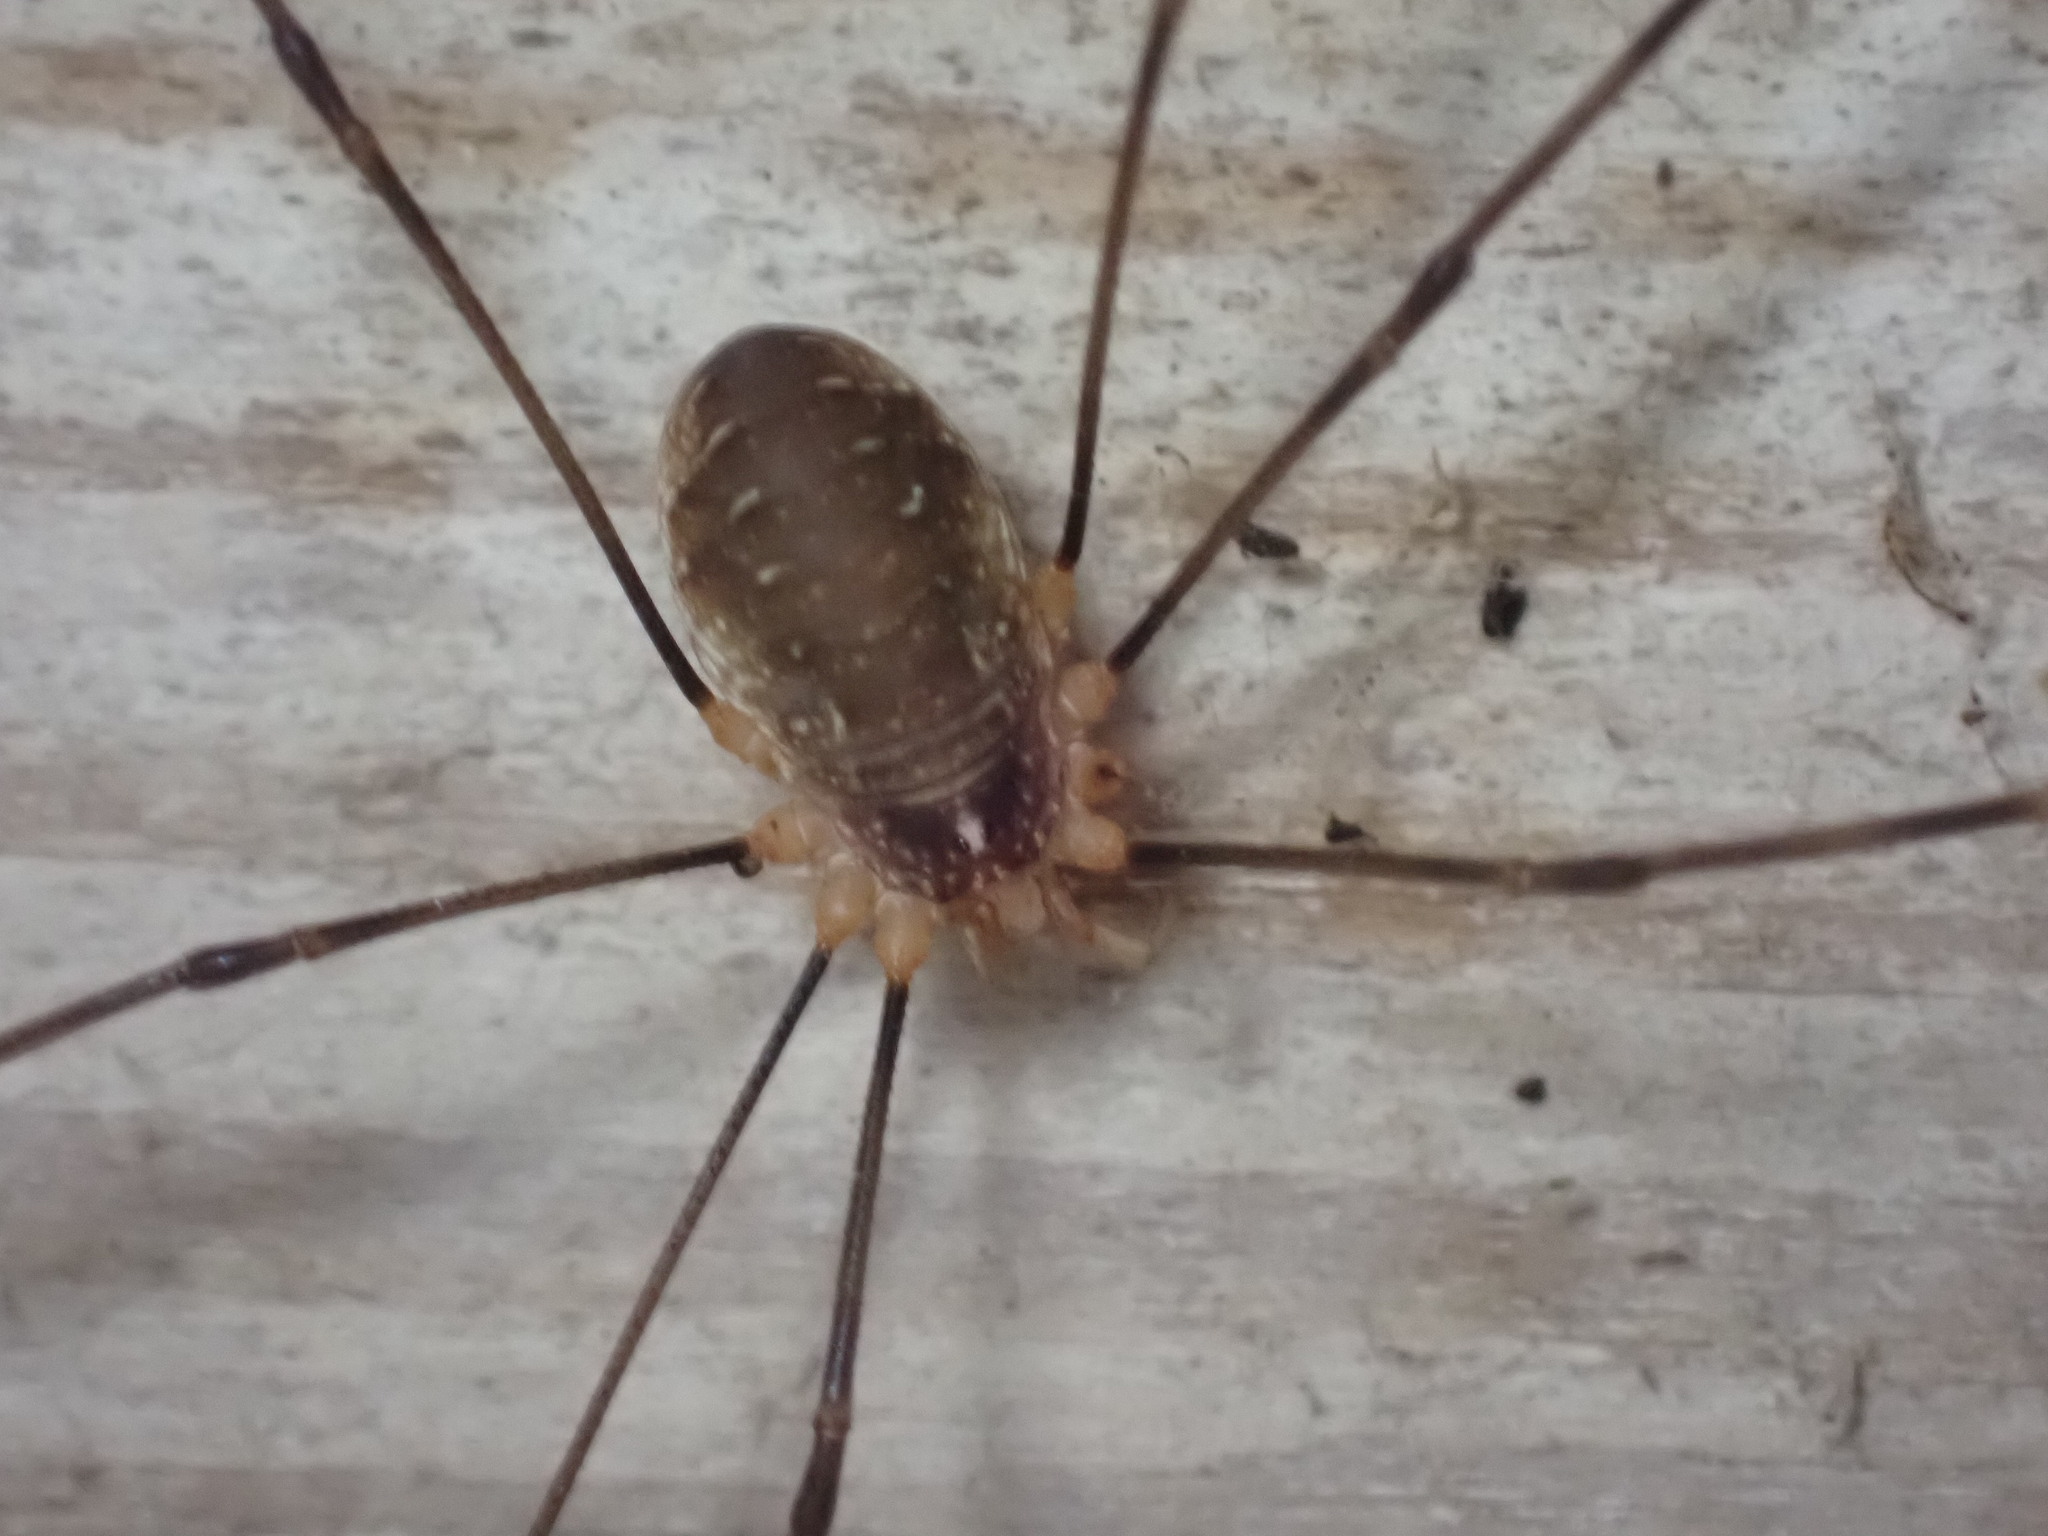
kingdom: Animalia
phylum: Arthropoda
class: Arachnida
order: Opiliones
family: Phalangiidae
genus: Opilio
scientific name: Opilio canestrinii
